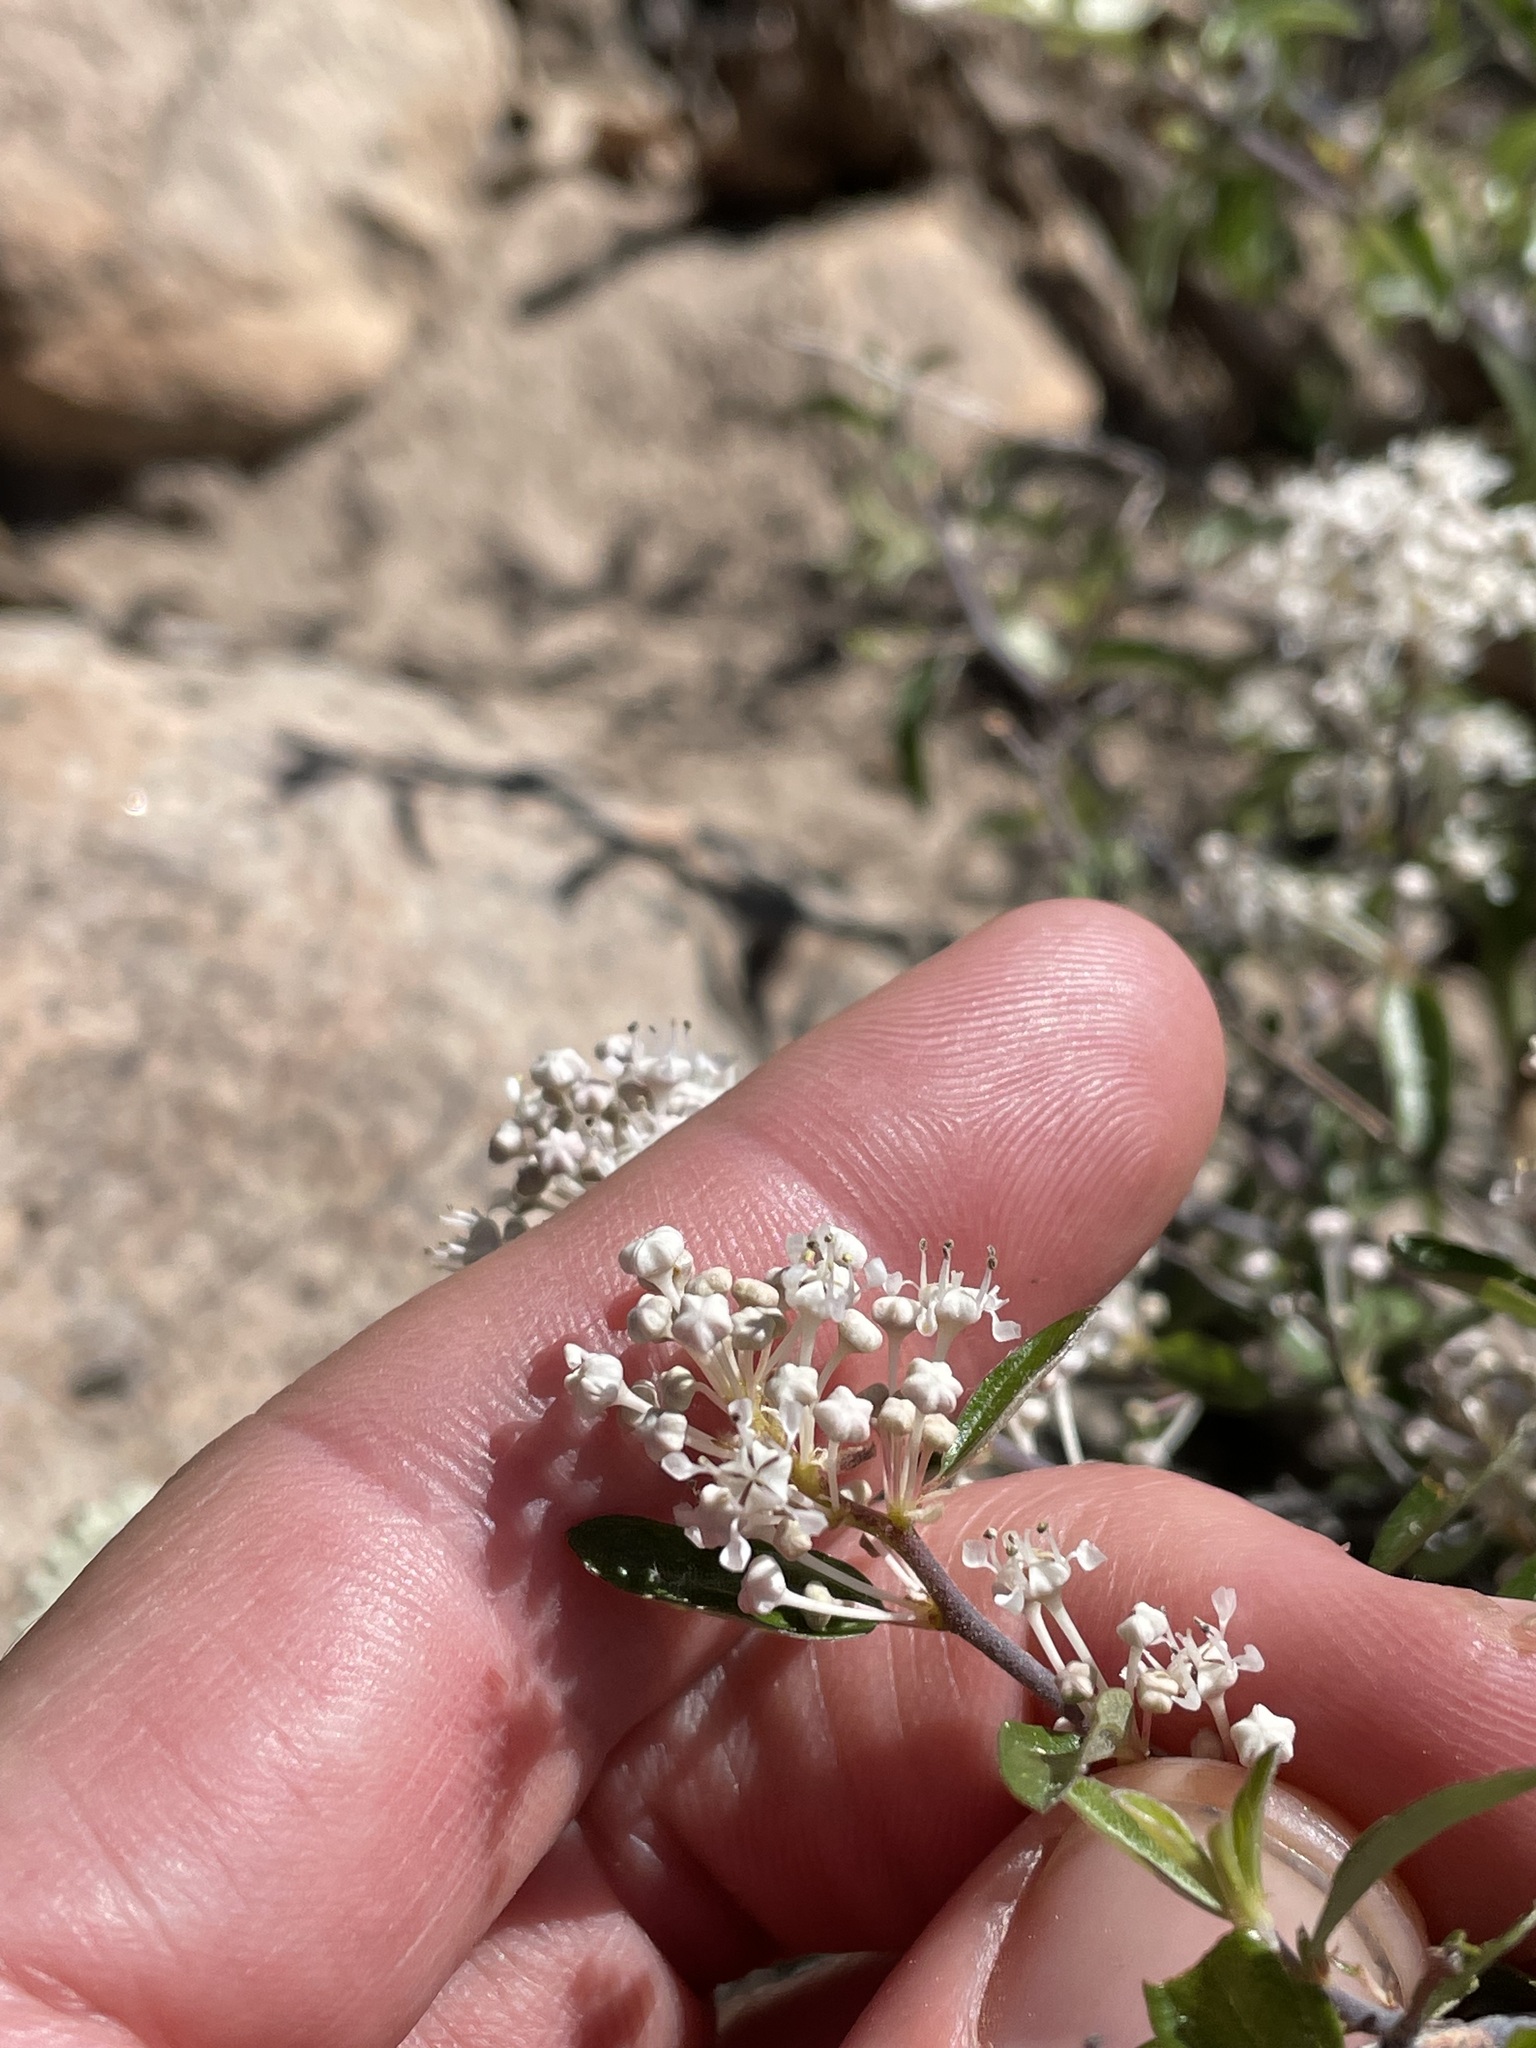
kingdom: Plantae
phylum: Tracheophyta
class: Magnoliopsida
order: Rosales
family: Rhamnaceae
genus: Ceanothus
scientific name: Ceanothus fendleri
